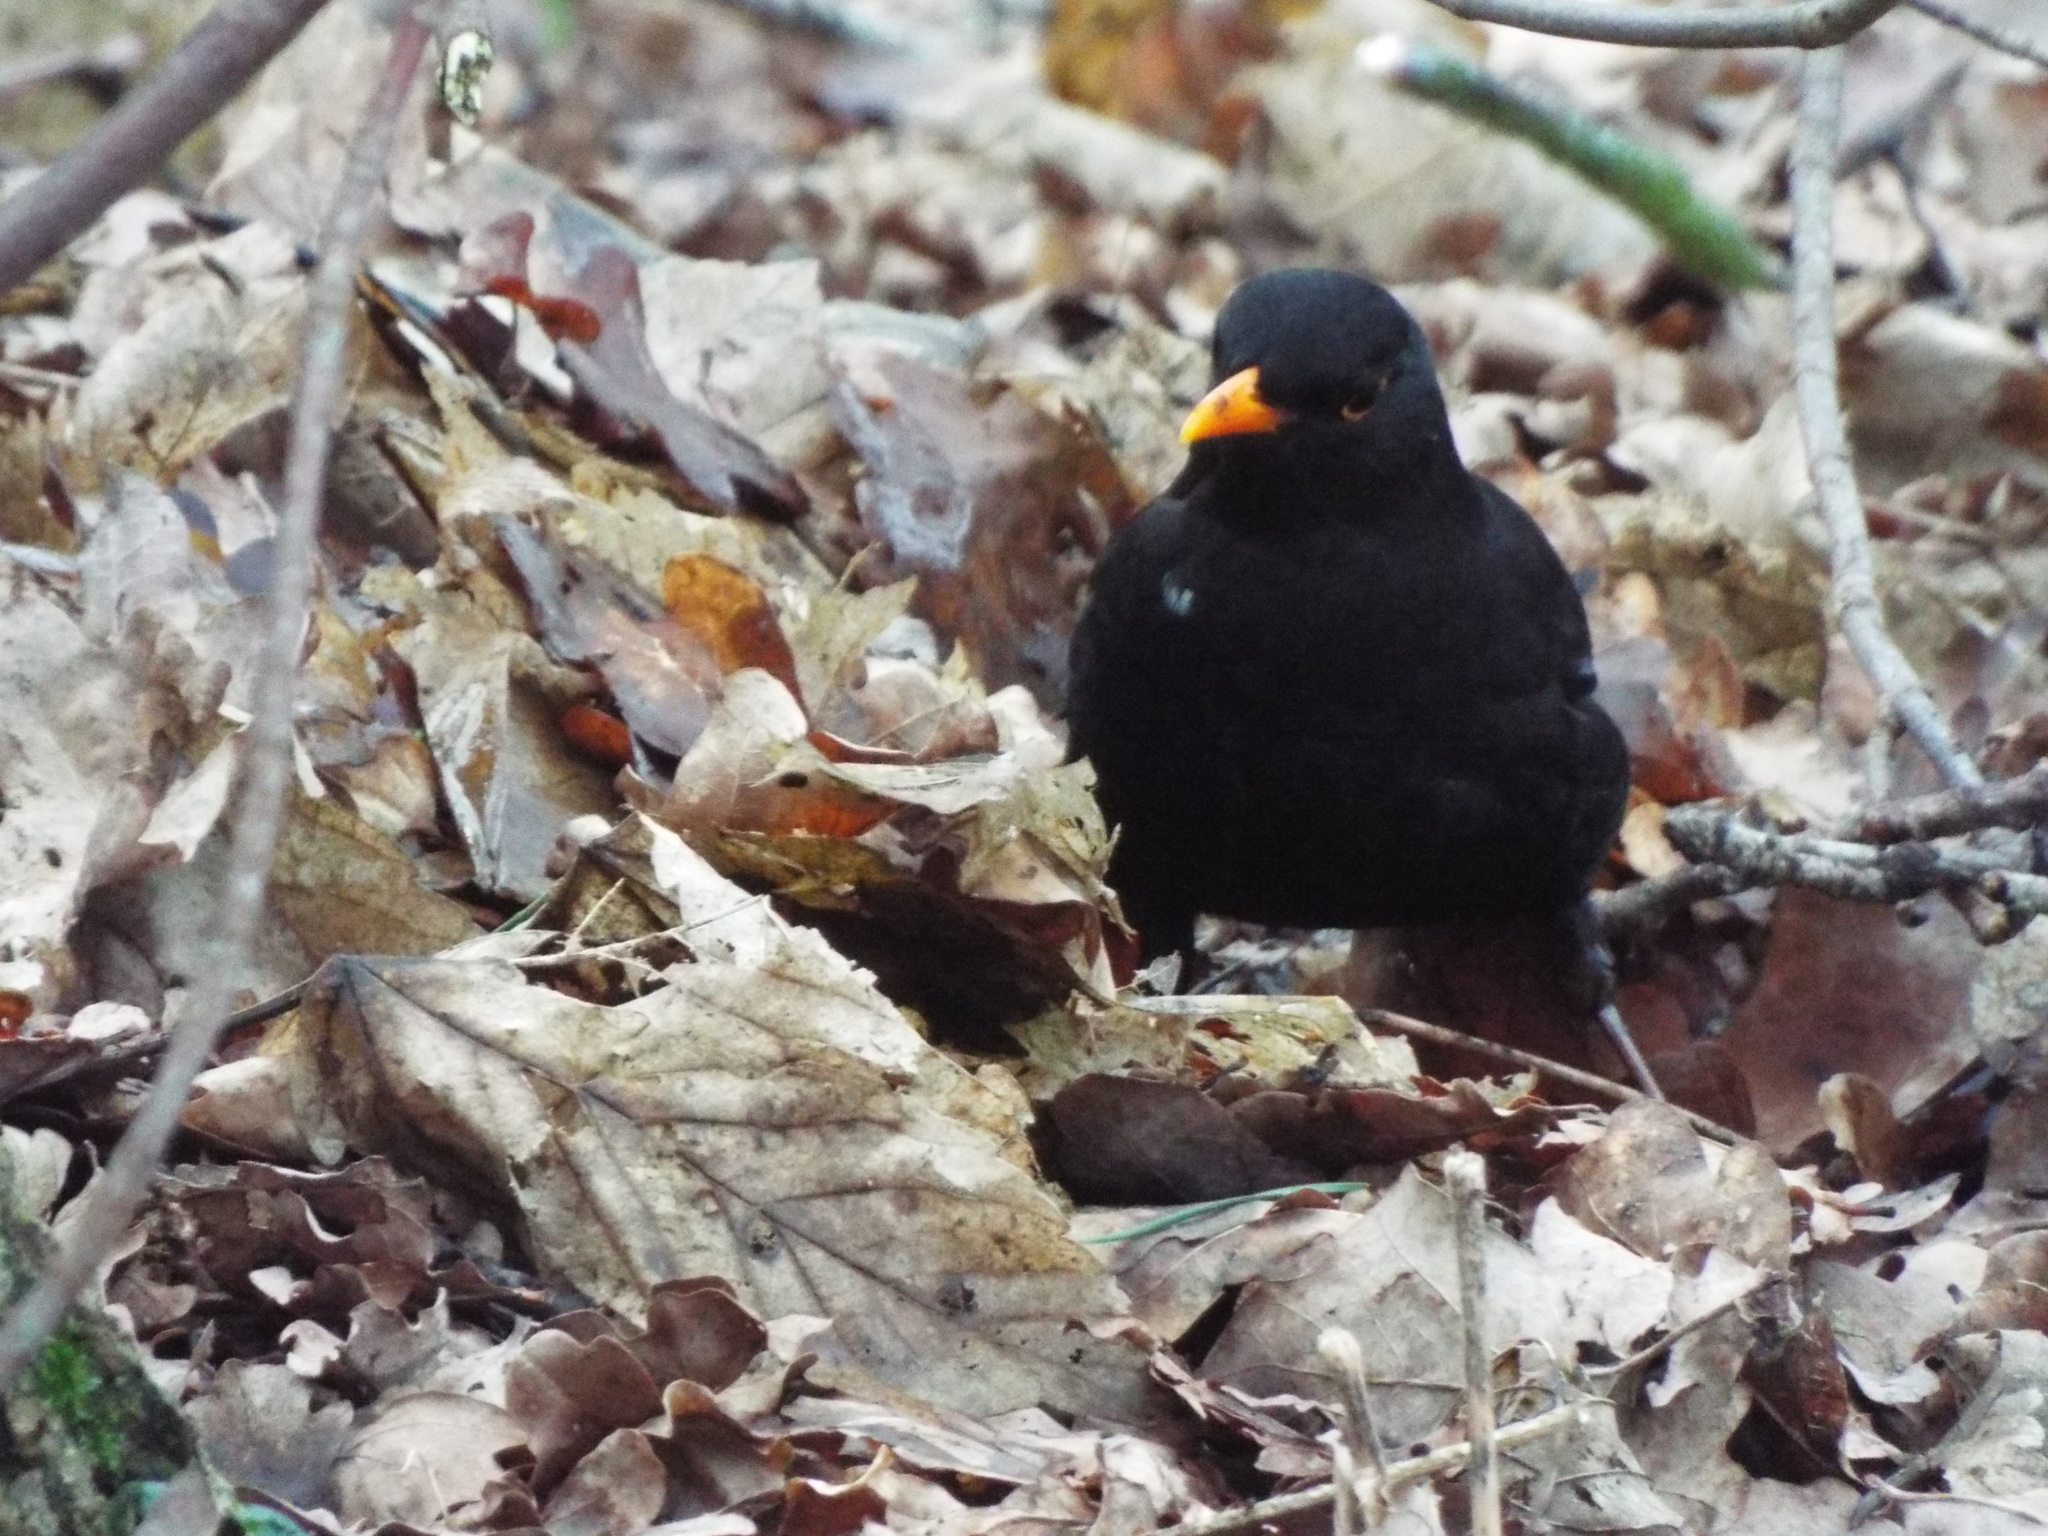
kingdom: Animalia
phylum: Chordata
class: Aves
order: Passeriformes
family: Turdidae
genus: Turdus
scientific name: Turdus merula
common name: Common blackbird
